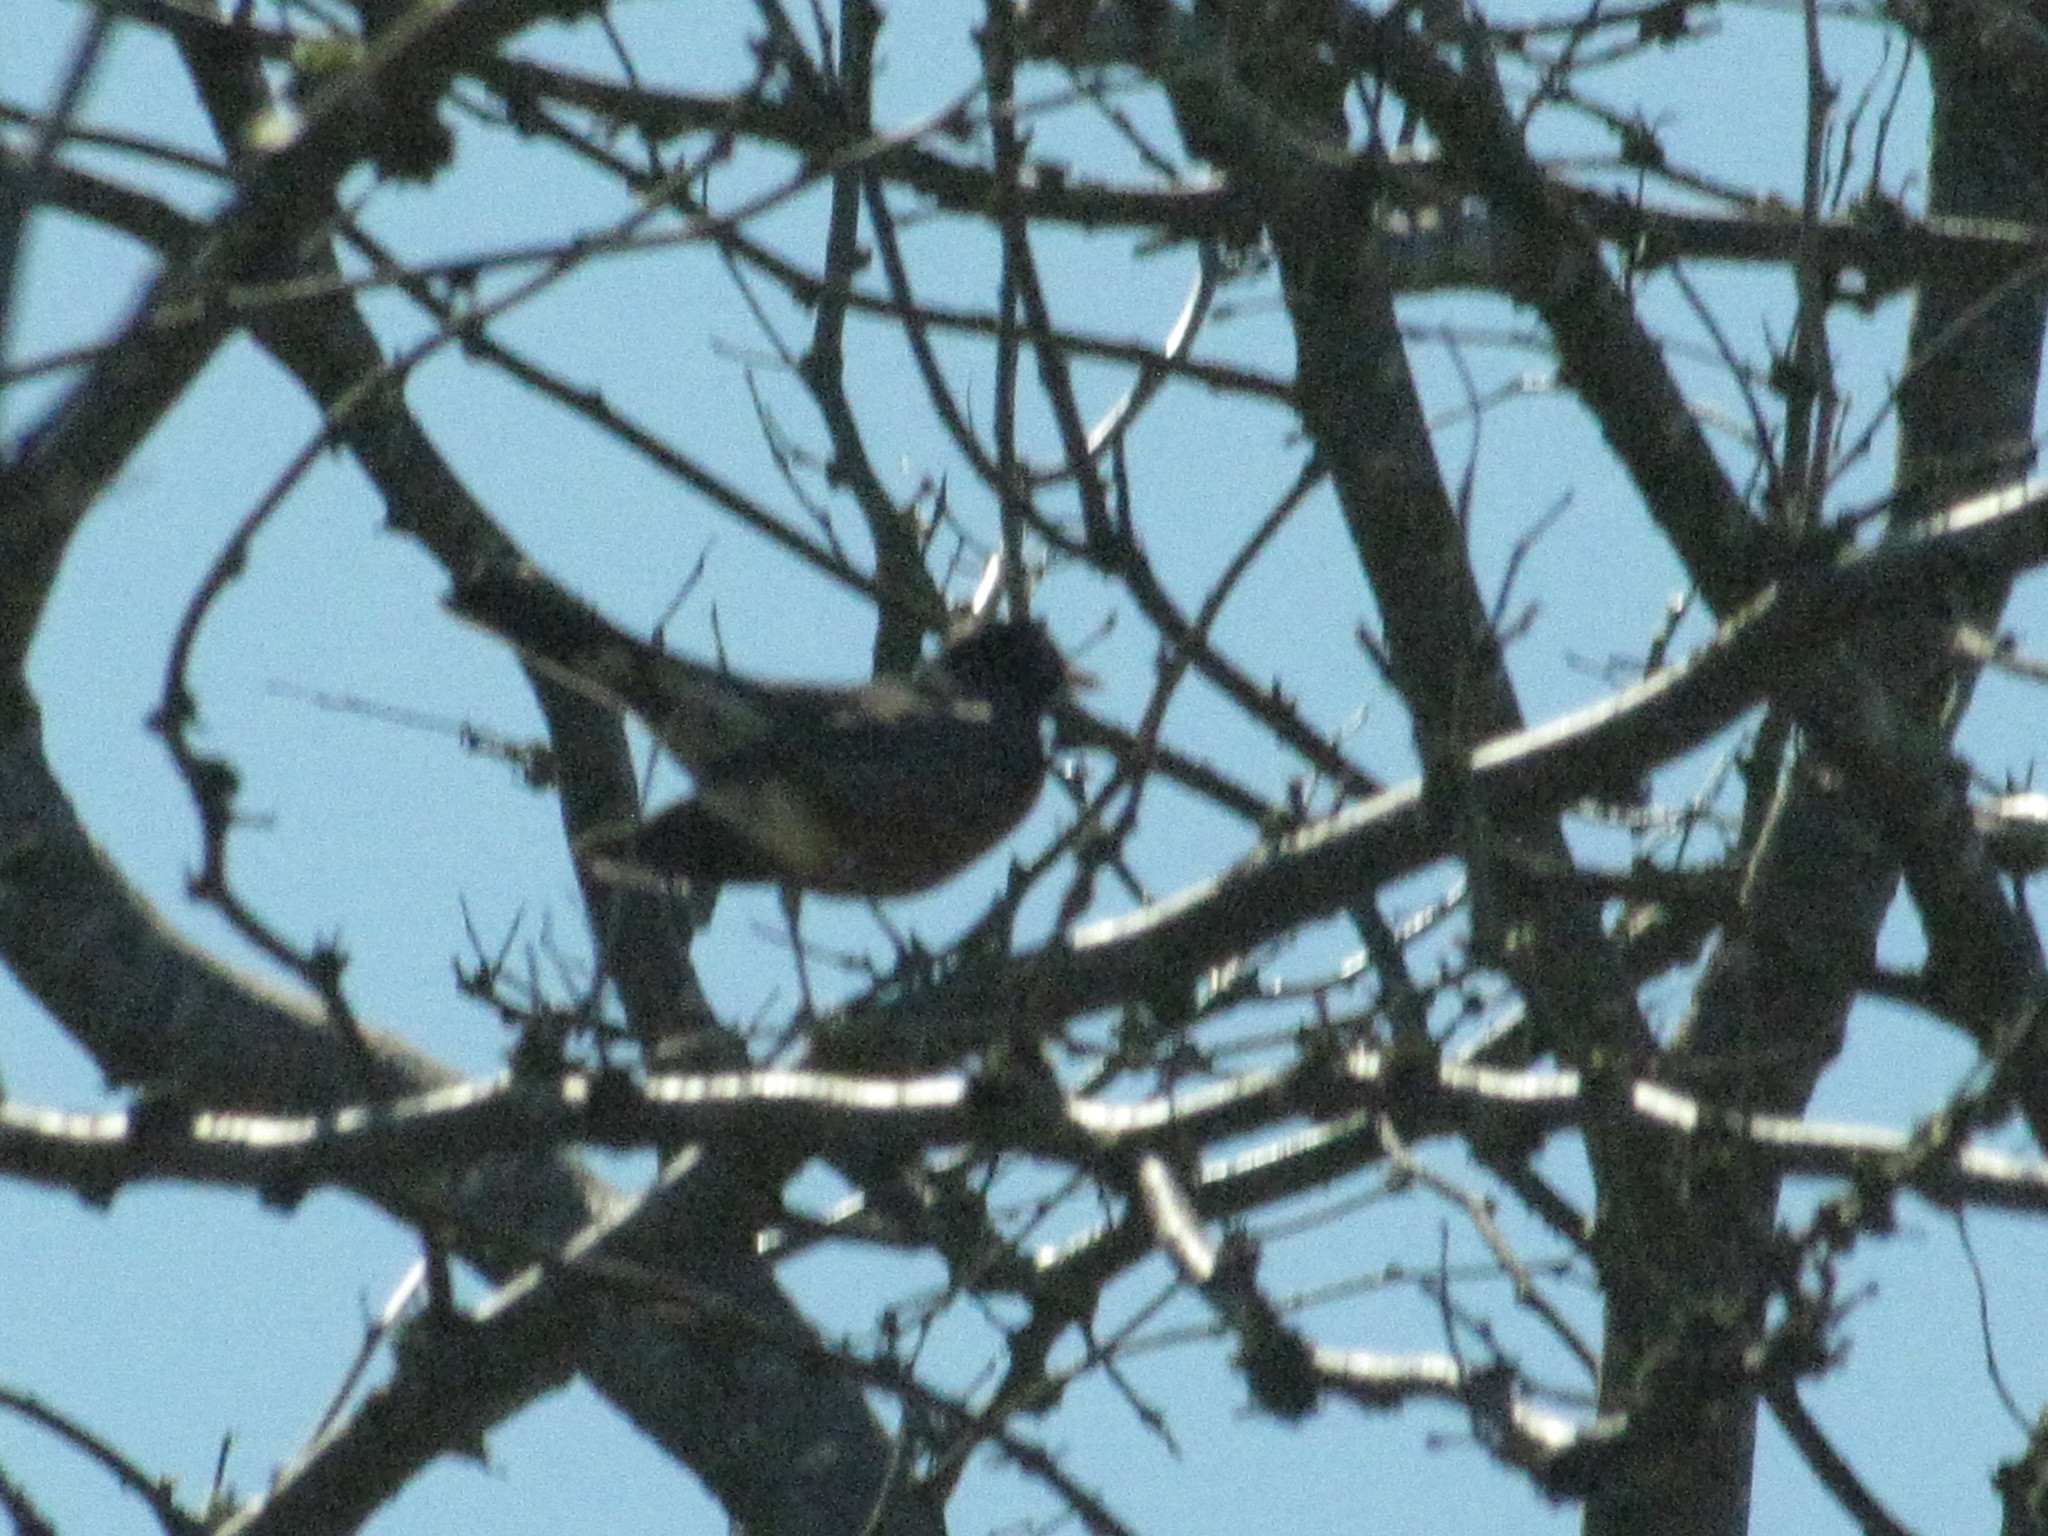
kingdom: Animalia
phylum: Chordata
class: Aves
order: Passeriformes
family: Turdidae
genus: Turdus
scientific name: Turdus migratorius
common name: American robin
